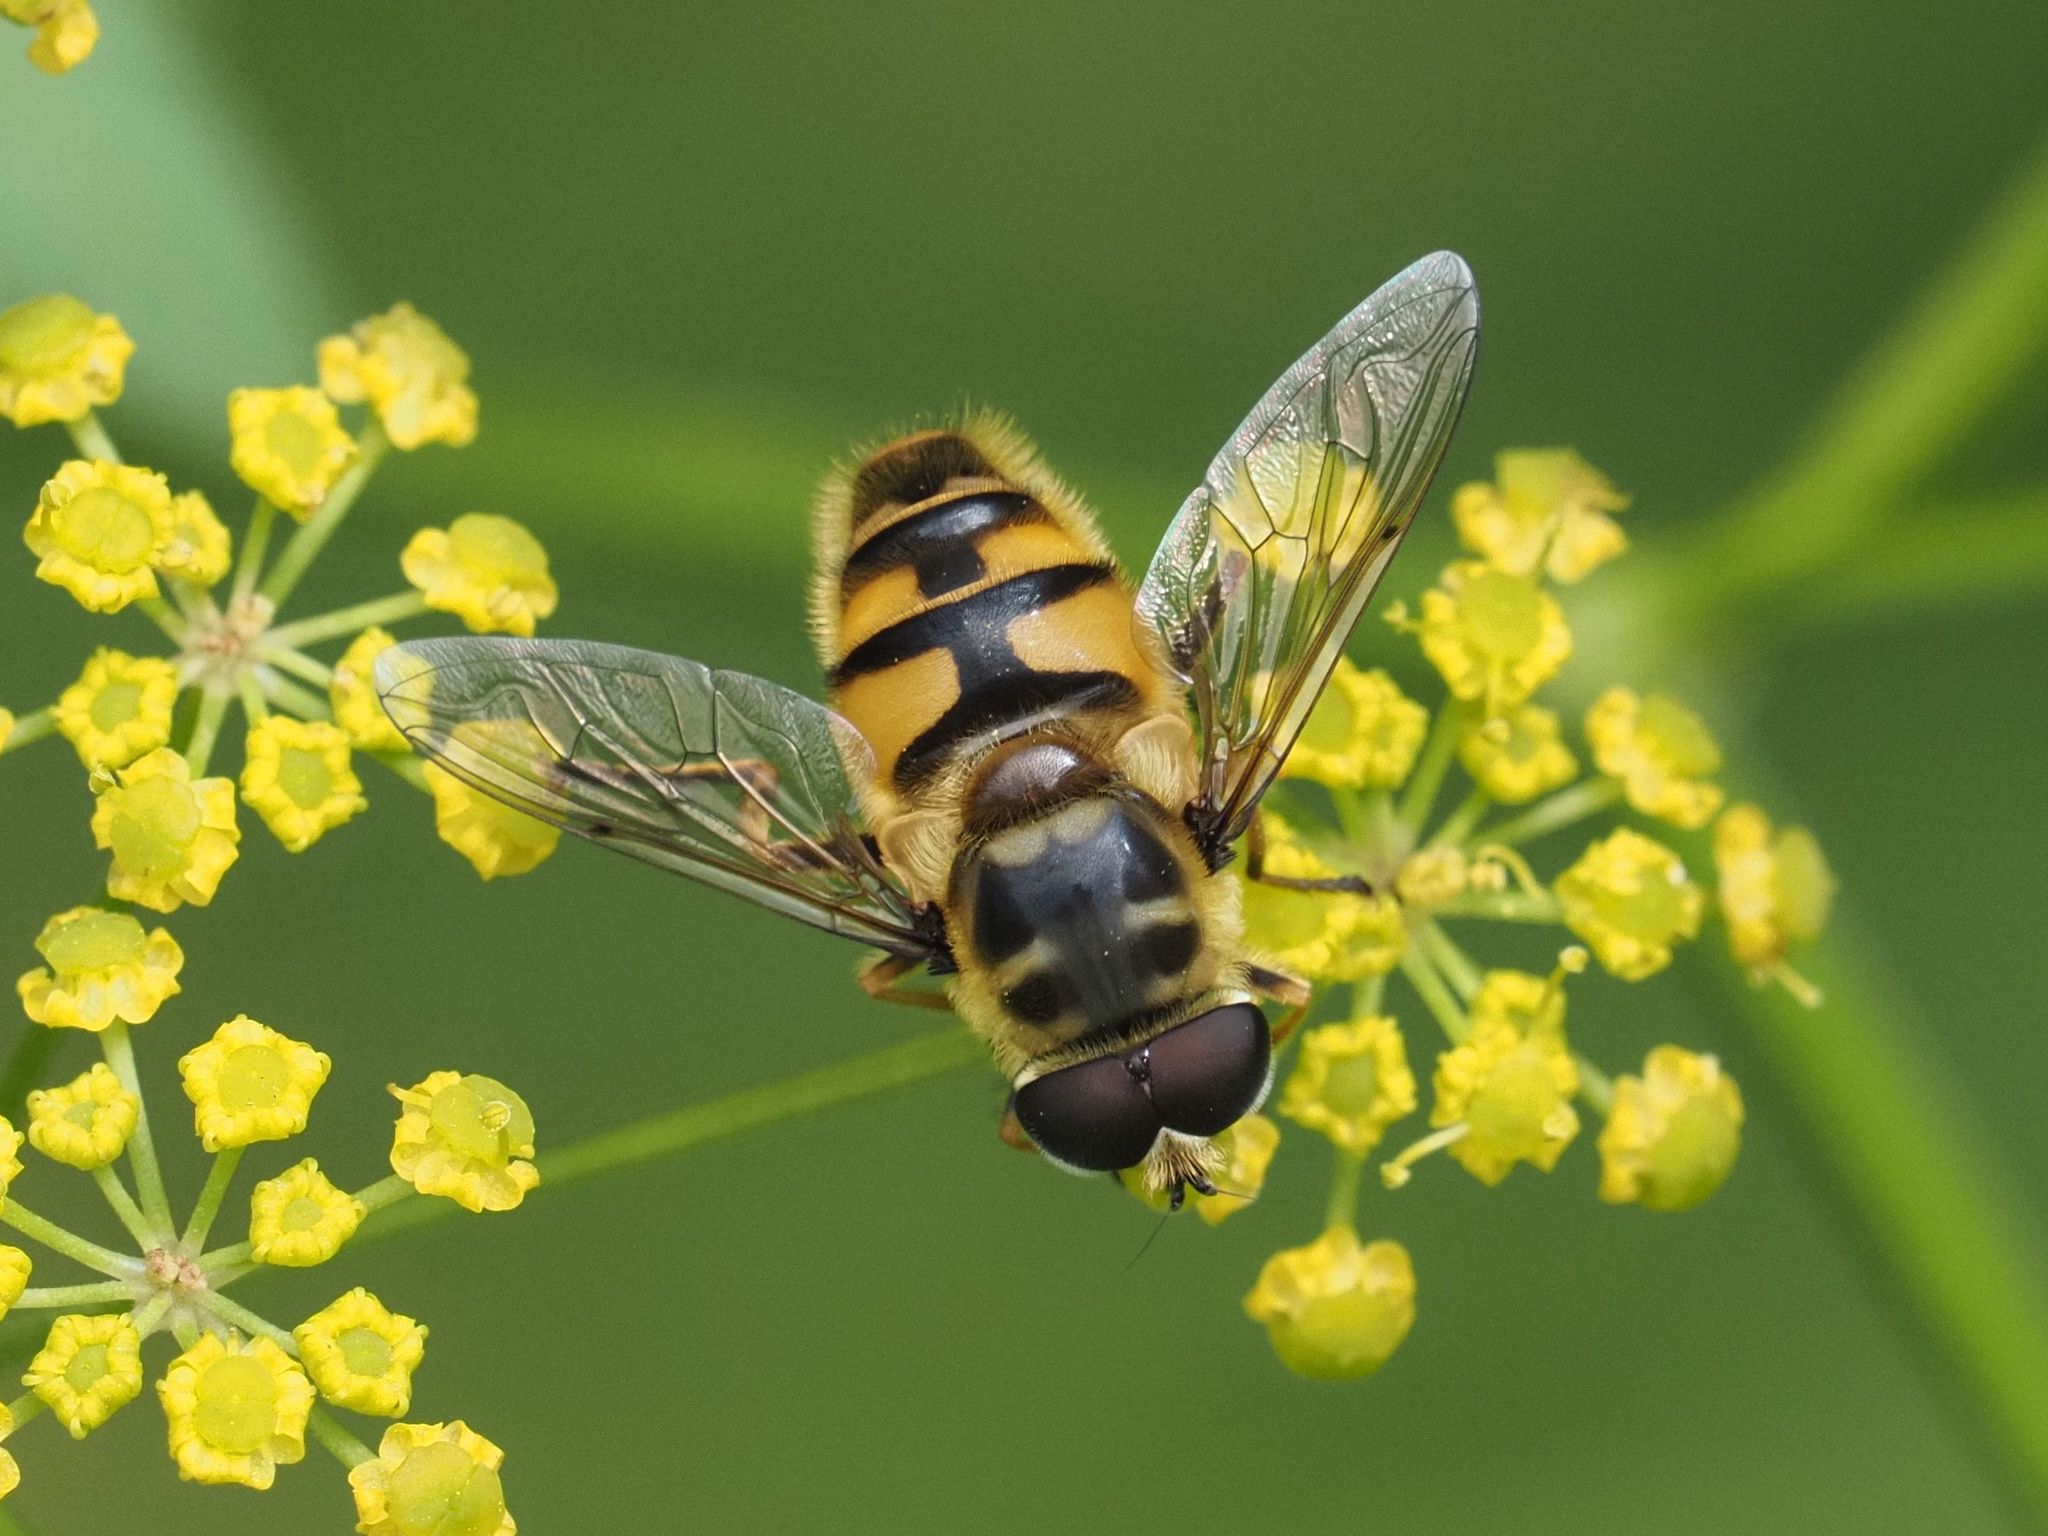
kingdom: Animalia
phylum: Arthropoda
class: Insecta
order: Diptera
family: Syrphidae
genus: Myathropa
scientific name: Myathropa florea
